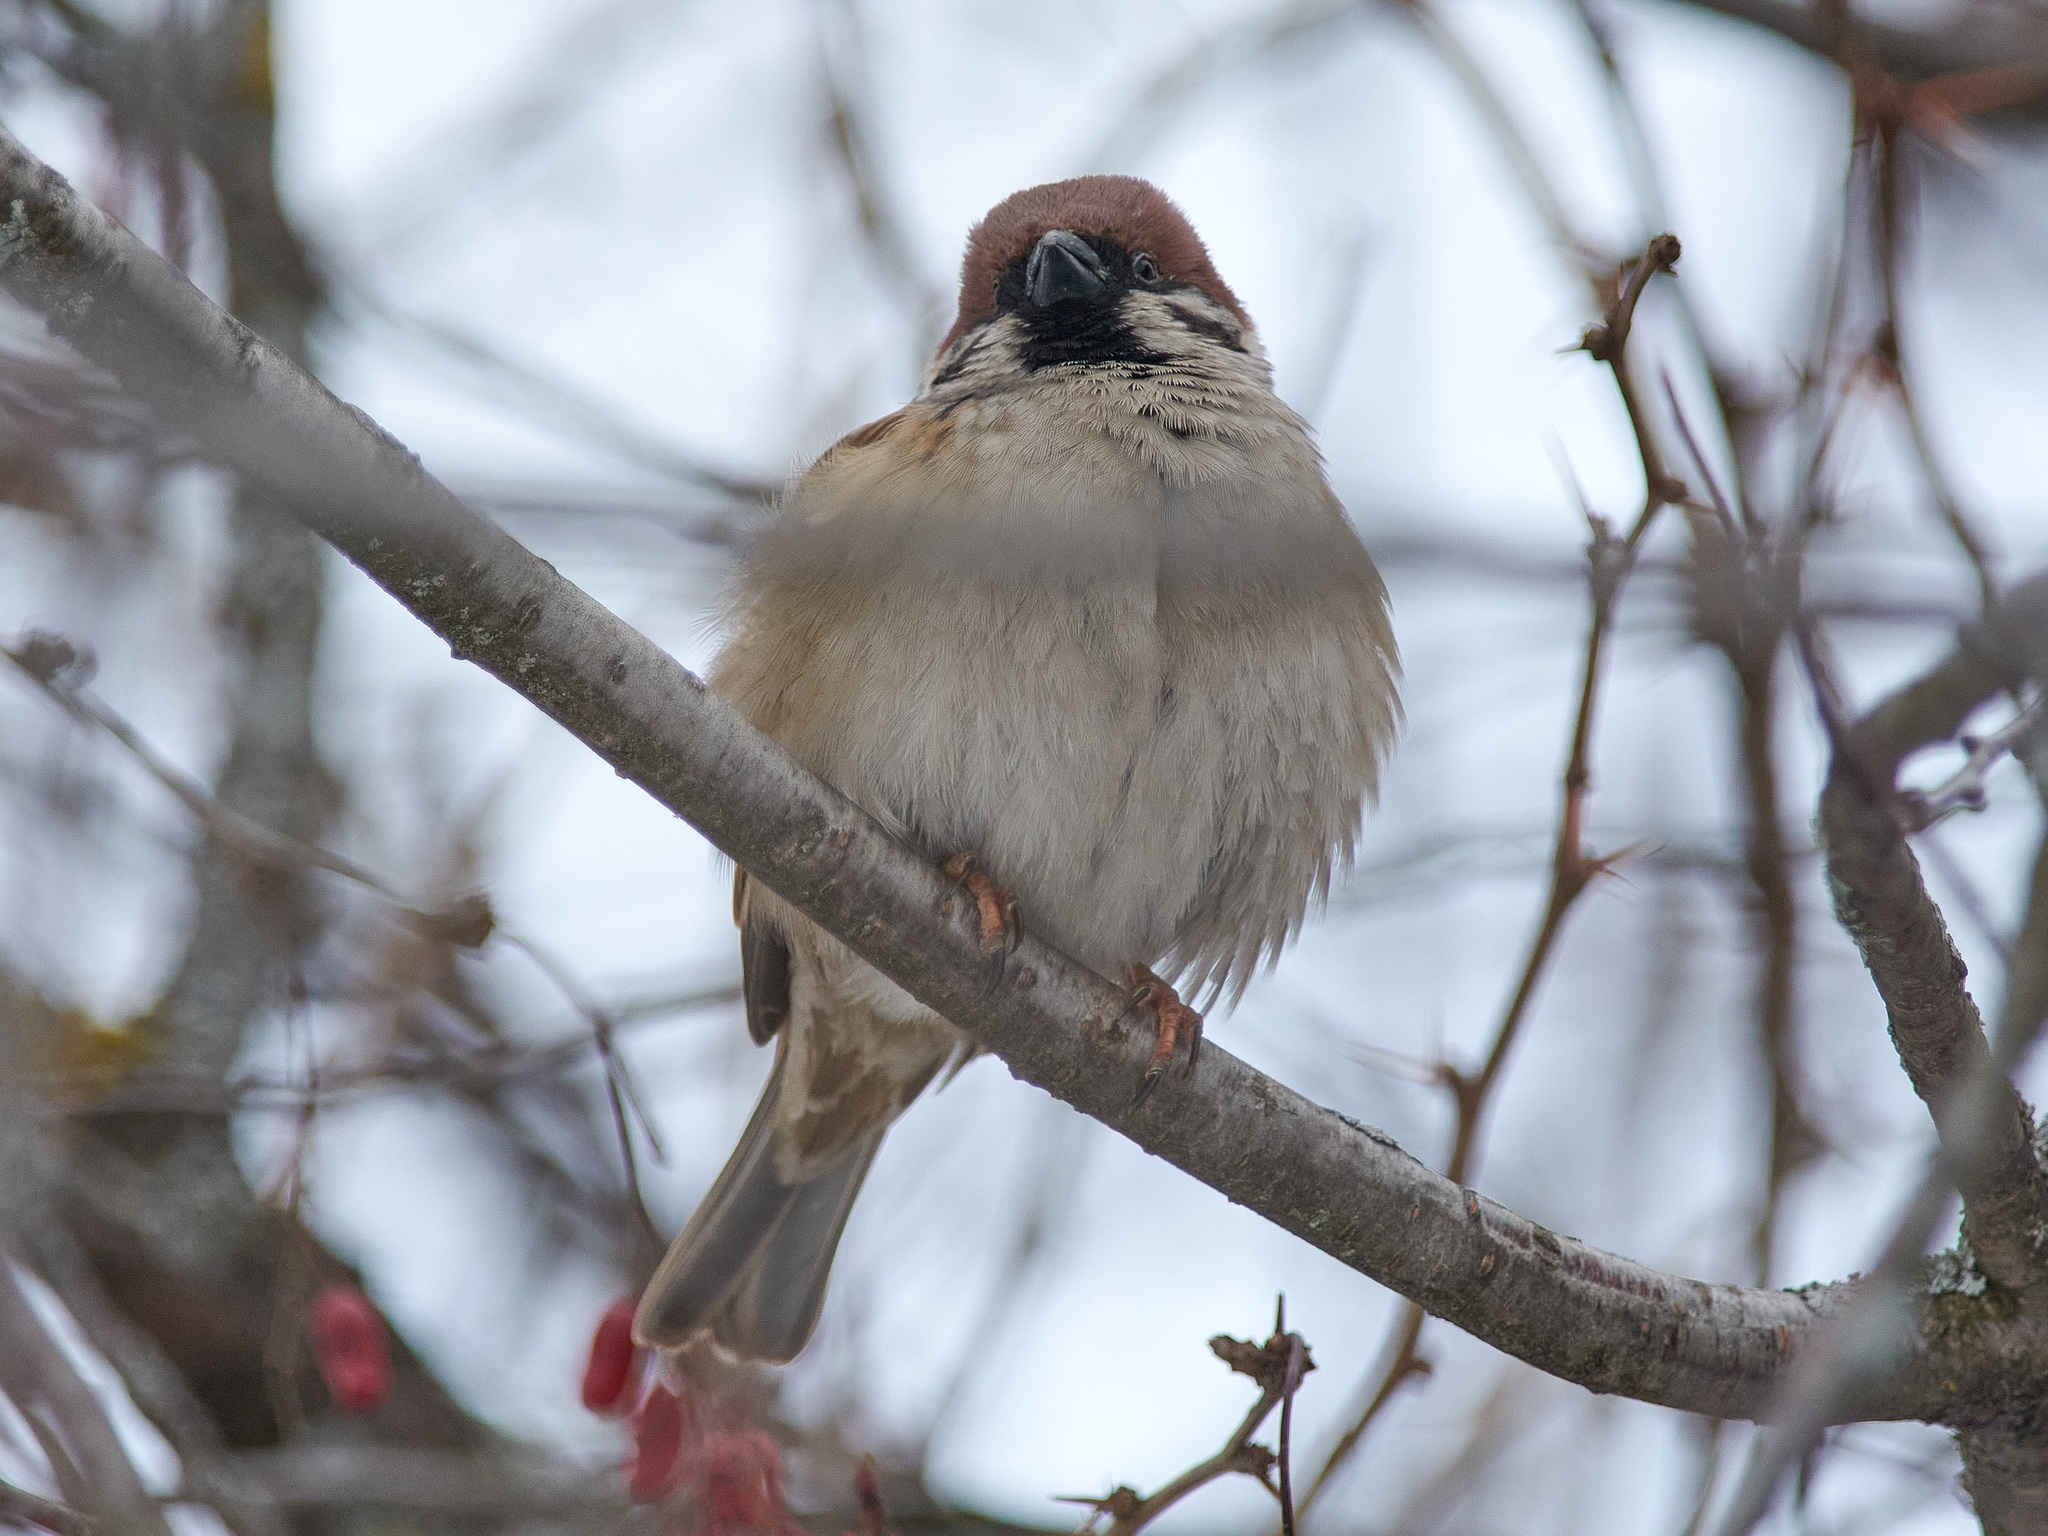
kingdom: Animalia
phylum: Chordata
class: Aves
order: Passeriformes
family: Passeridae
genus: Passer
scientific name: Passer montanus
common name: Eurasian tree sparrow
